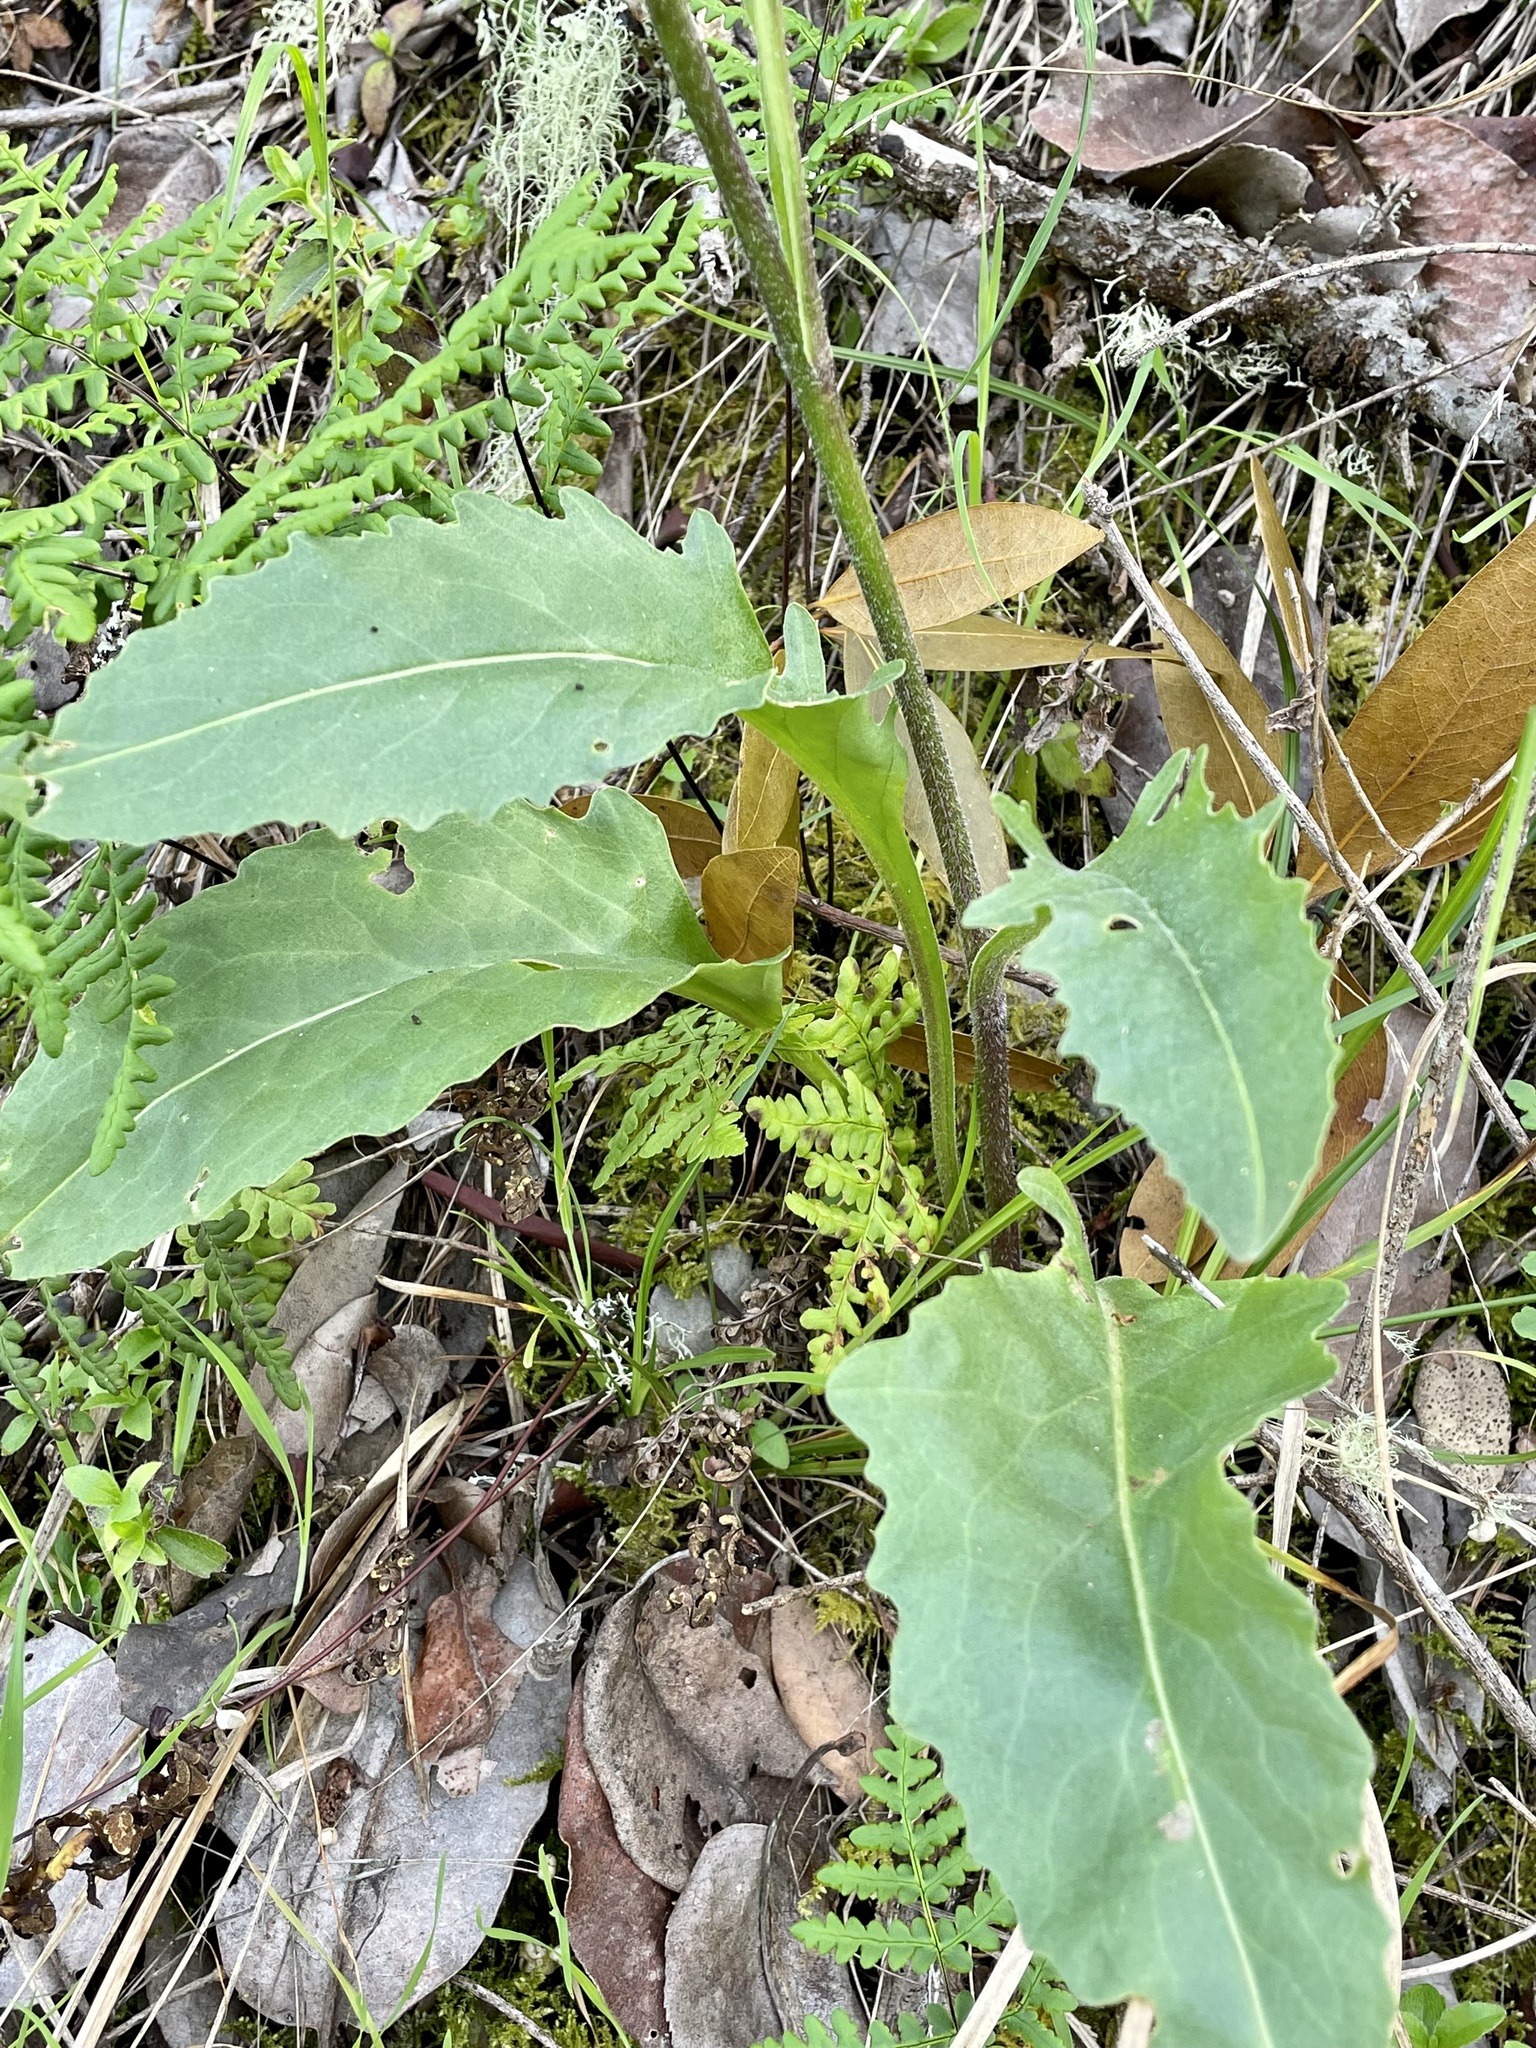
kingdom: Plantae
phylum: Tracheophyta
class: Magnoliopsida
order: Asterales
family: Asteraceae
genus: Senecio
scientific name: Senecio aronicoides
